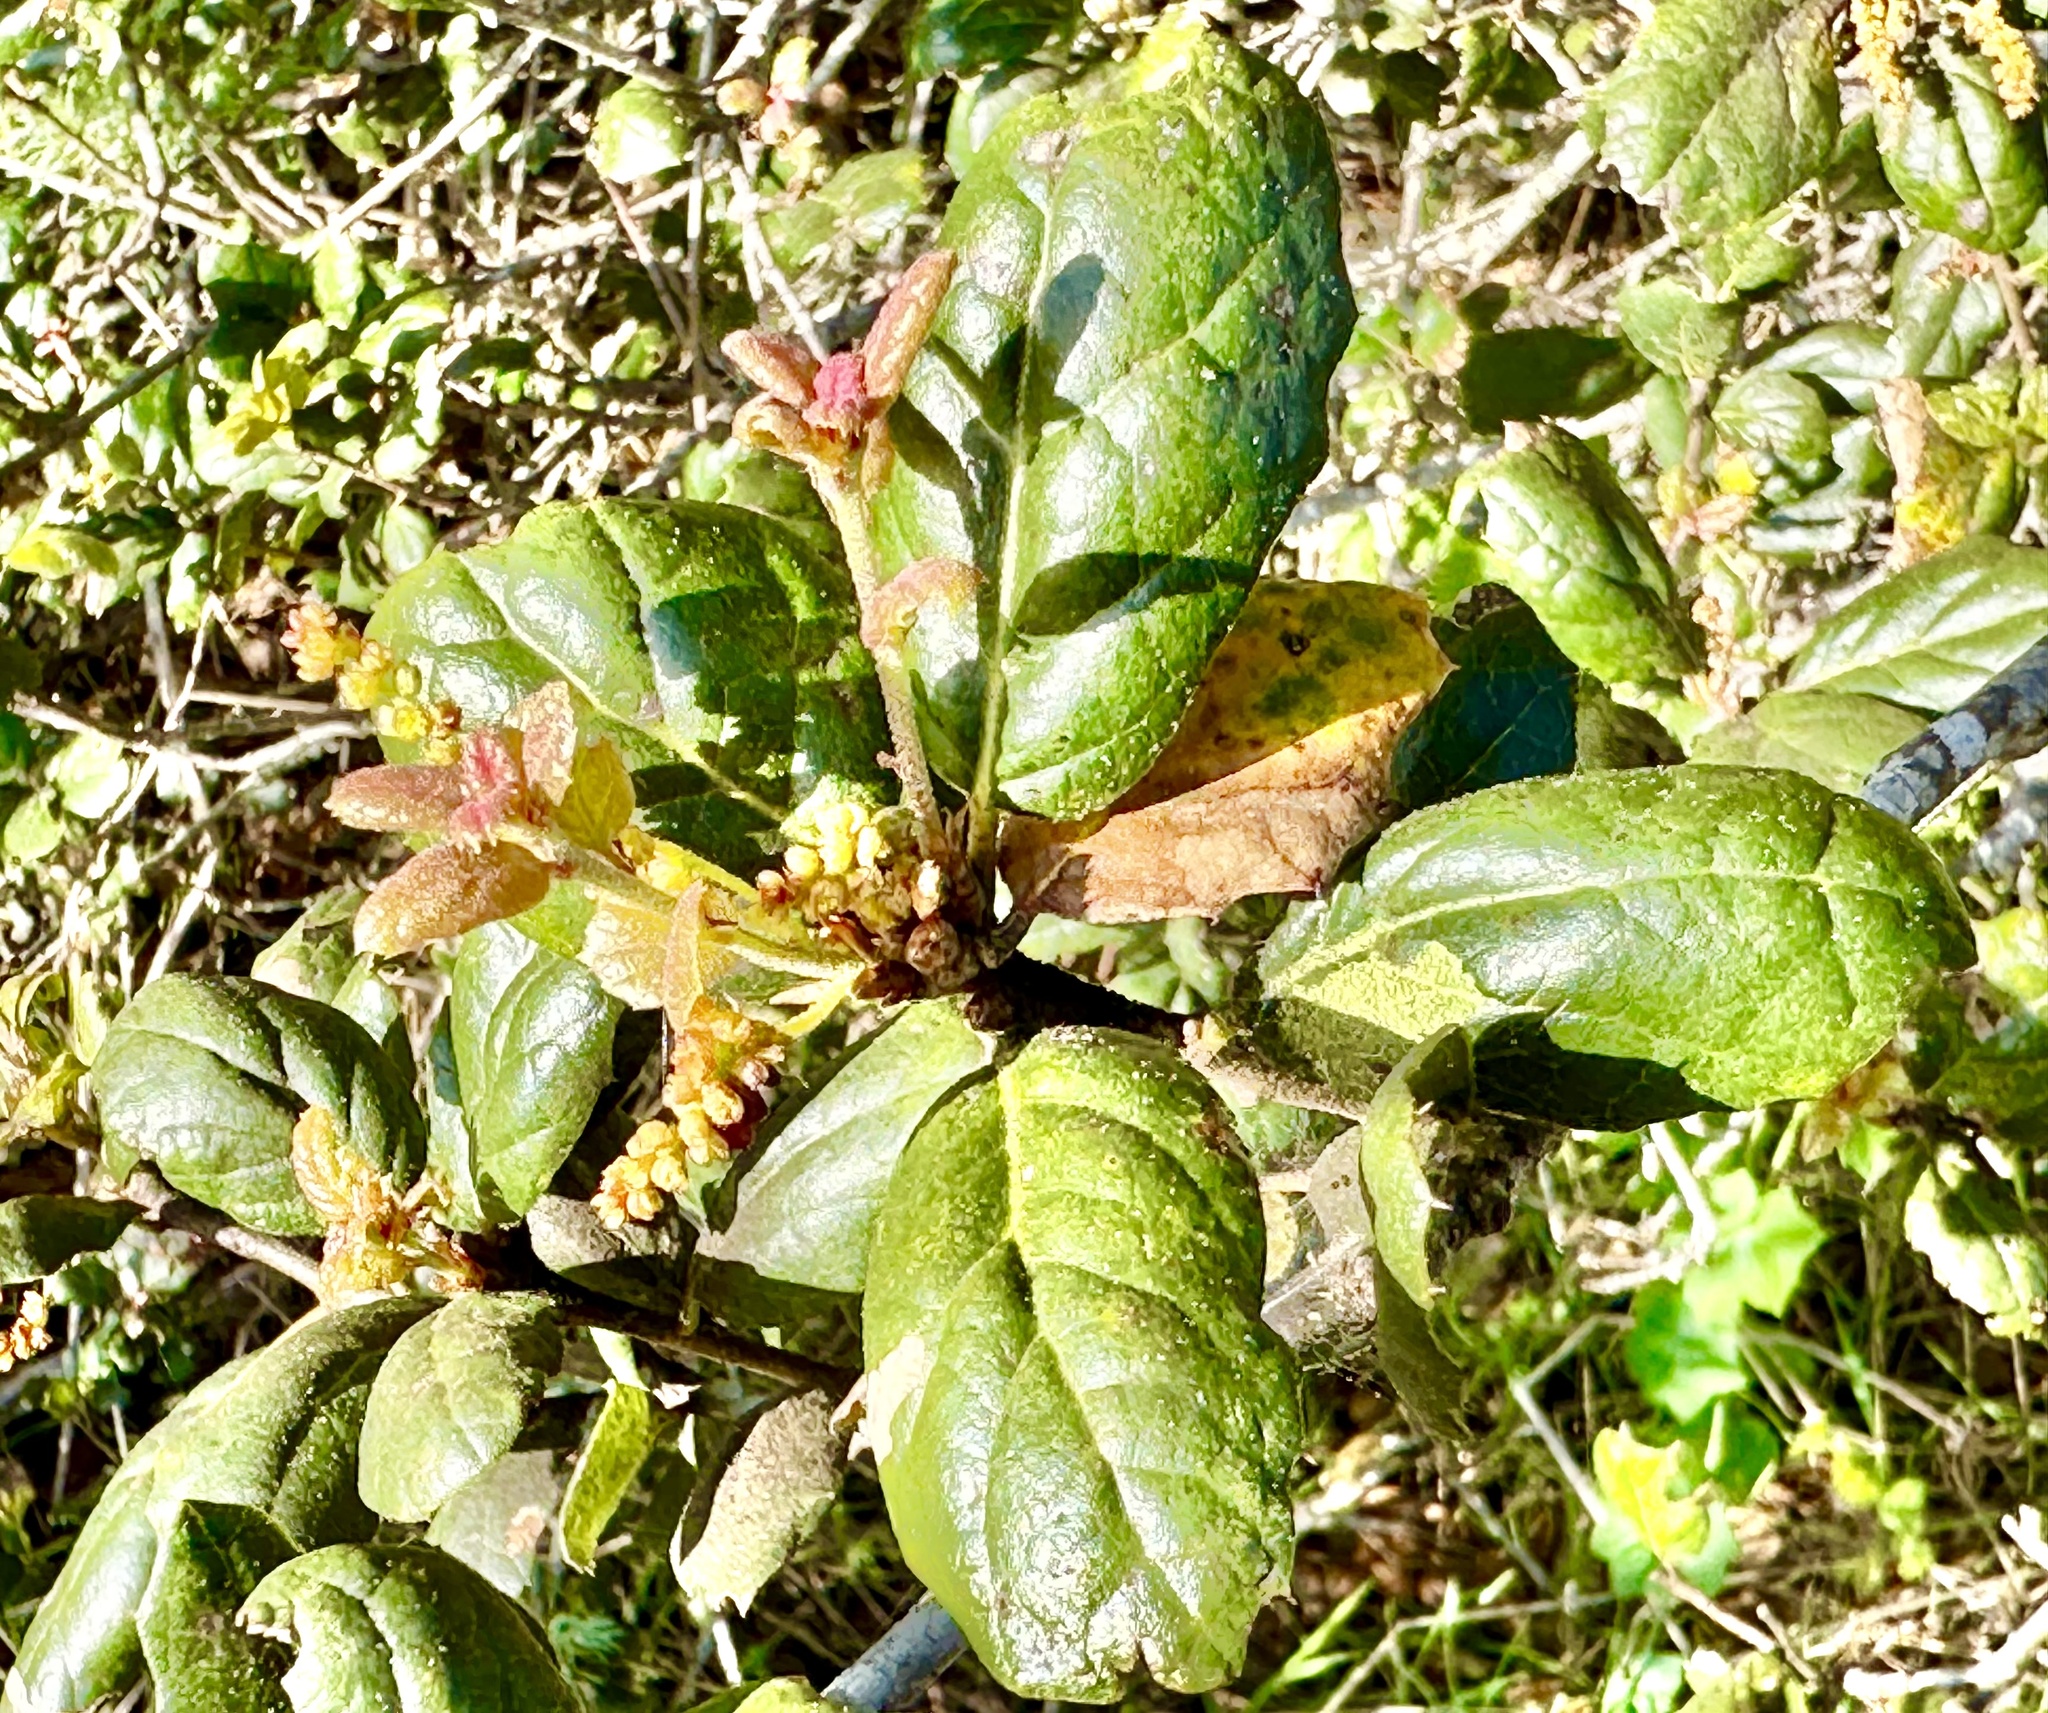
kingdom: Plantae
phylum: Tracheophyta
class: Magnoliopsida
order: Fagales
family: Fagaceae
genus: Quercus
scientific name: Quercus agrifolia
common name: California live oak
